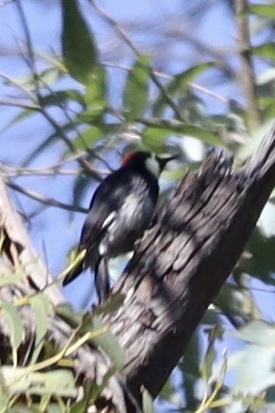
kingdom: Animalia
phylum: Chordata
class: Aves
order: Piciformes
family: Picidae
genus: Melanerpes
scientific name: Melanerpes formicivorus
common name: Acorn woodpecker
